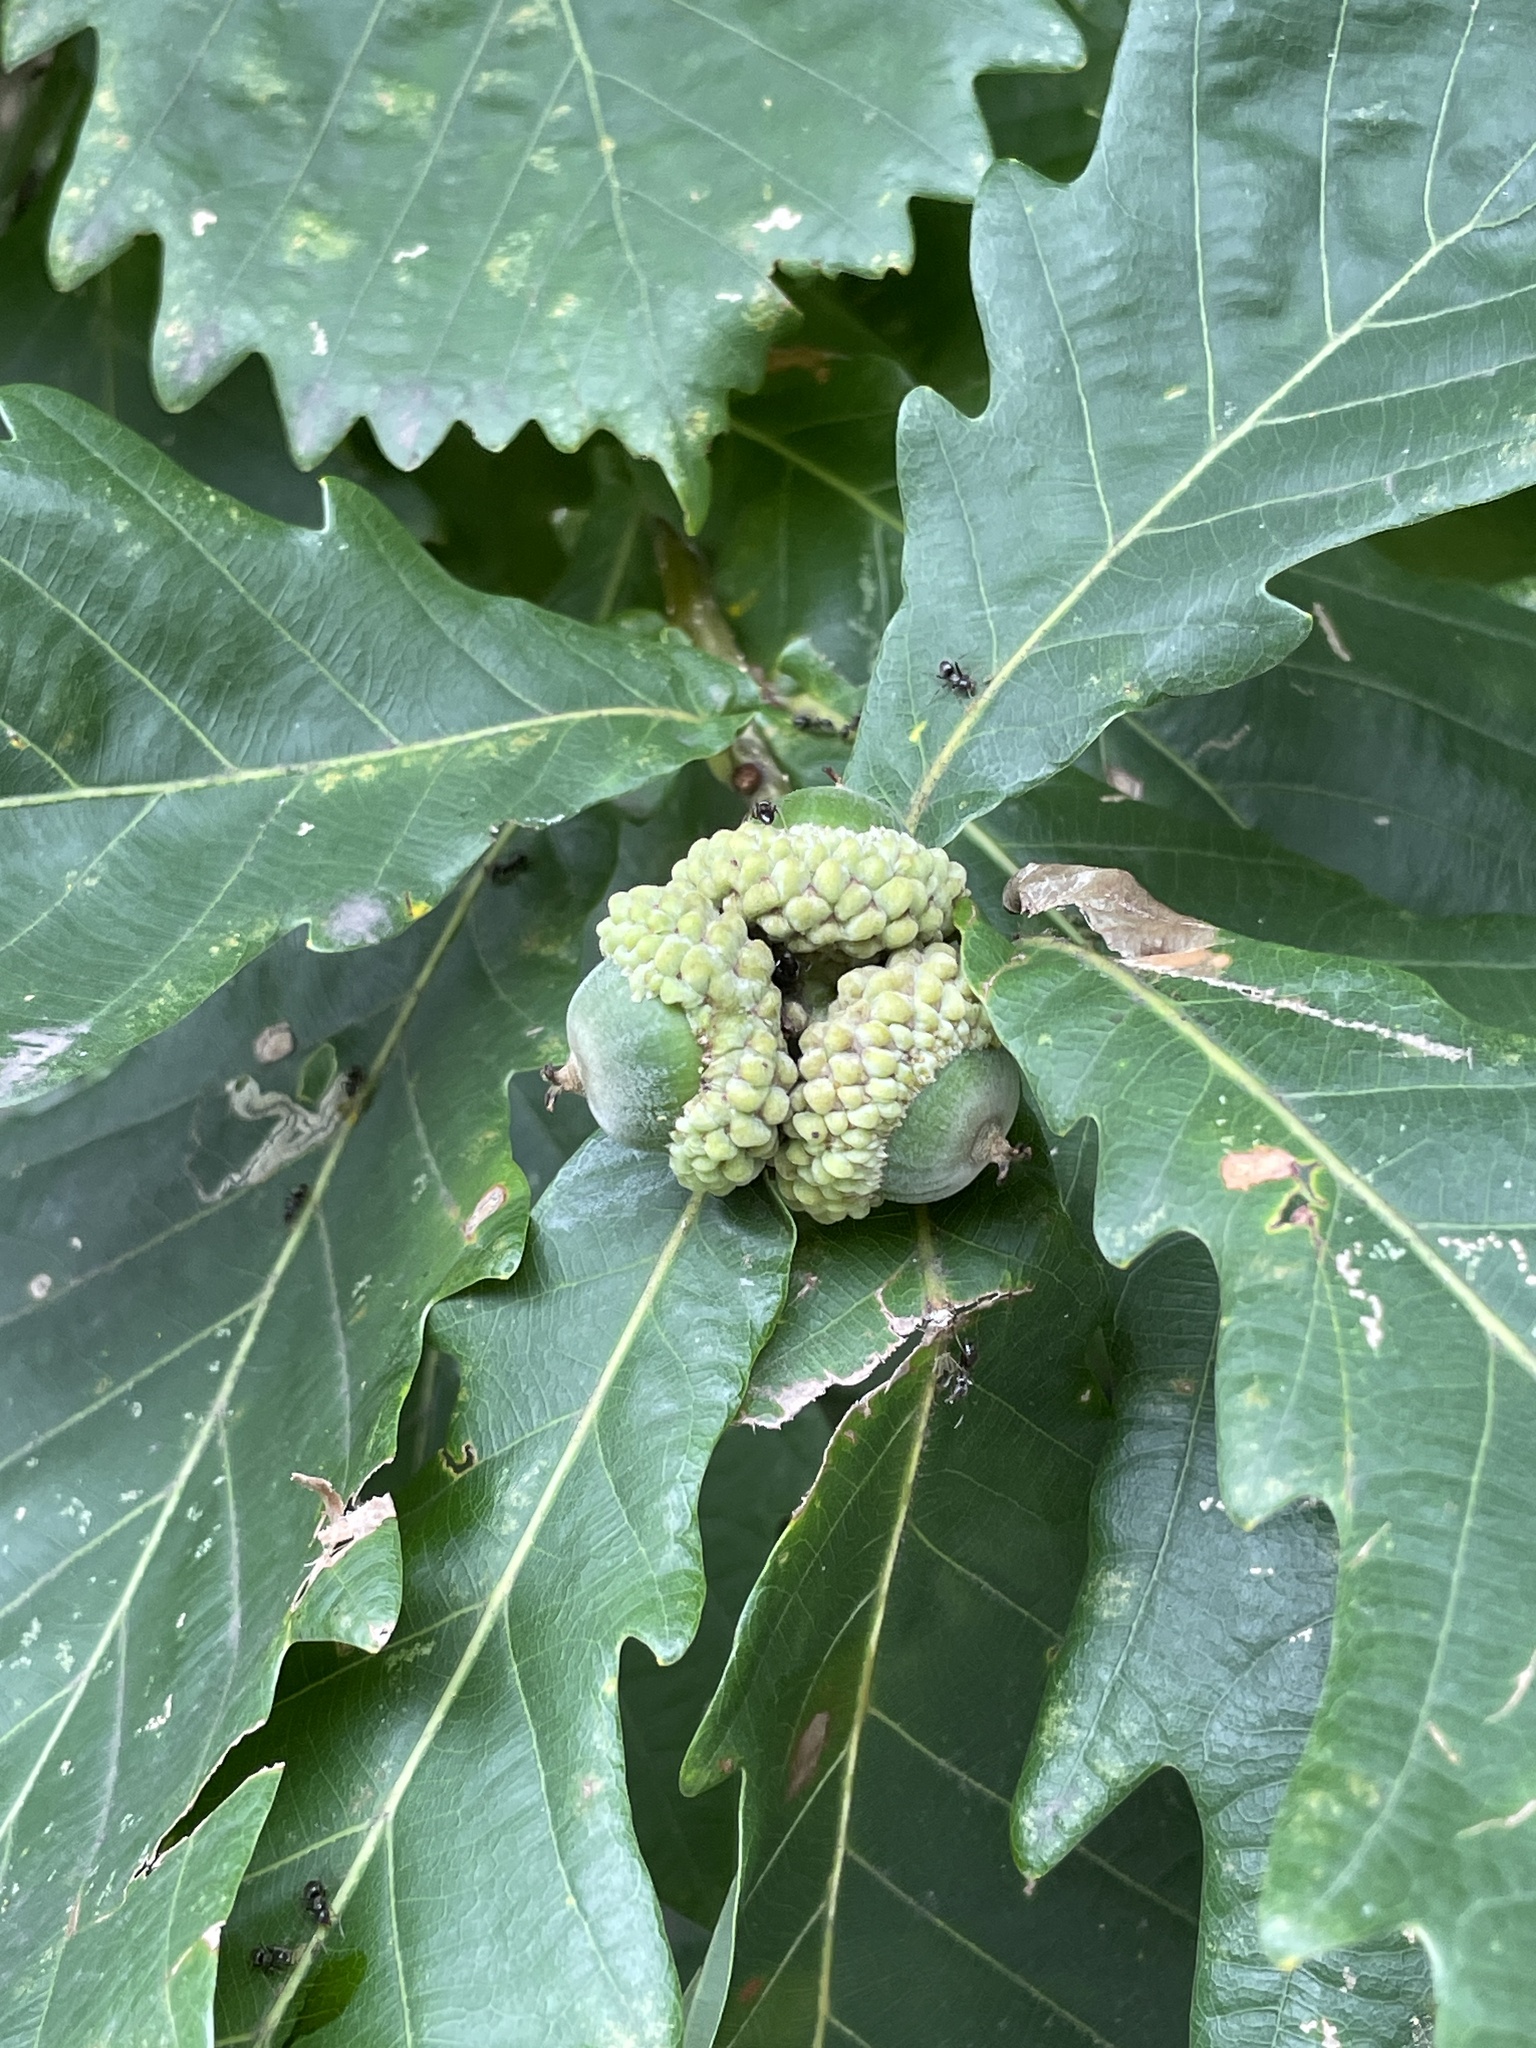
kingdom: Plantae
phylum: Tracheophyta
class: Magnoliopsida
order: Fagales
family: Fagaceae
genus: Quercus
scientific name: Quercus mongolica
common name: Mongolian oak
